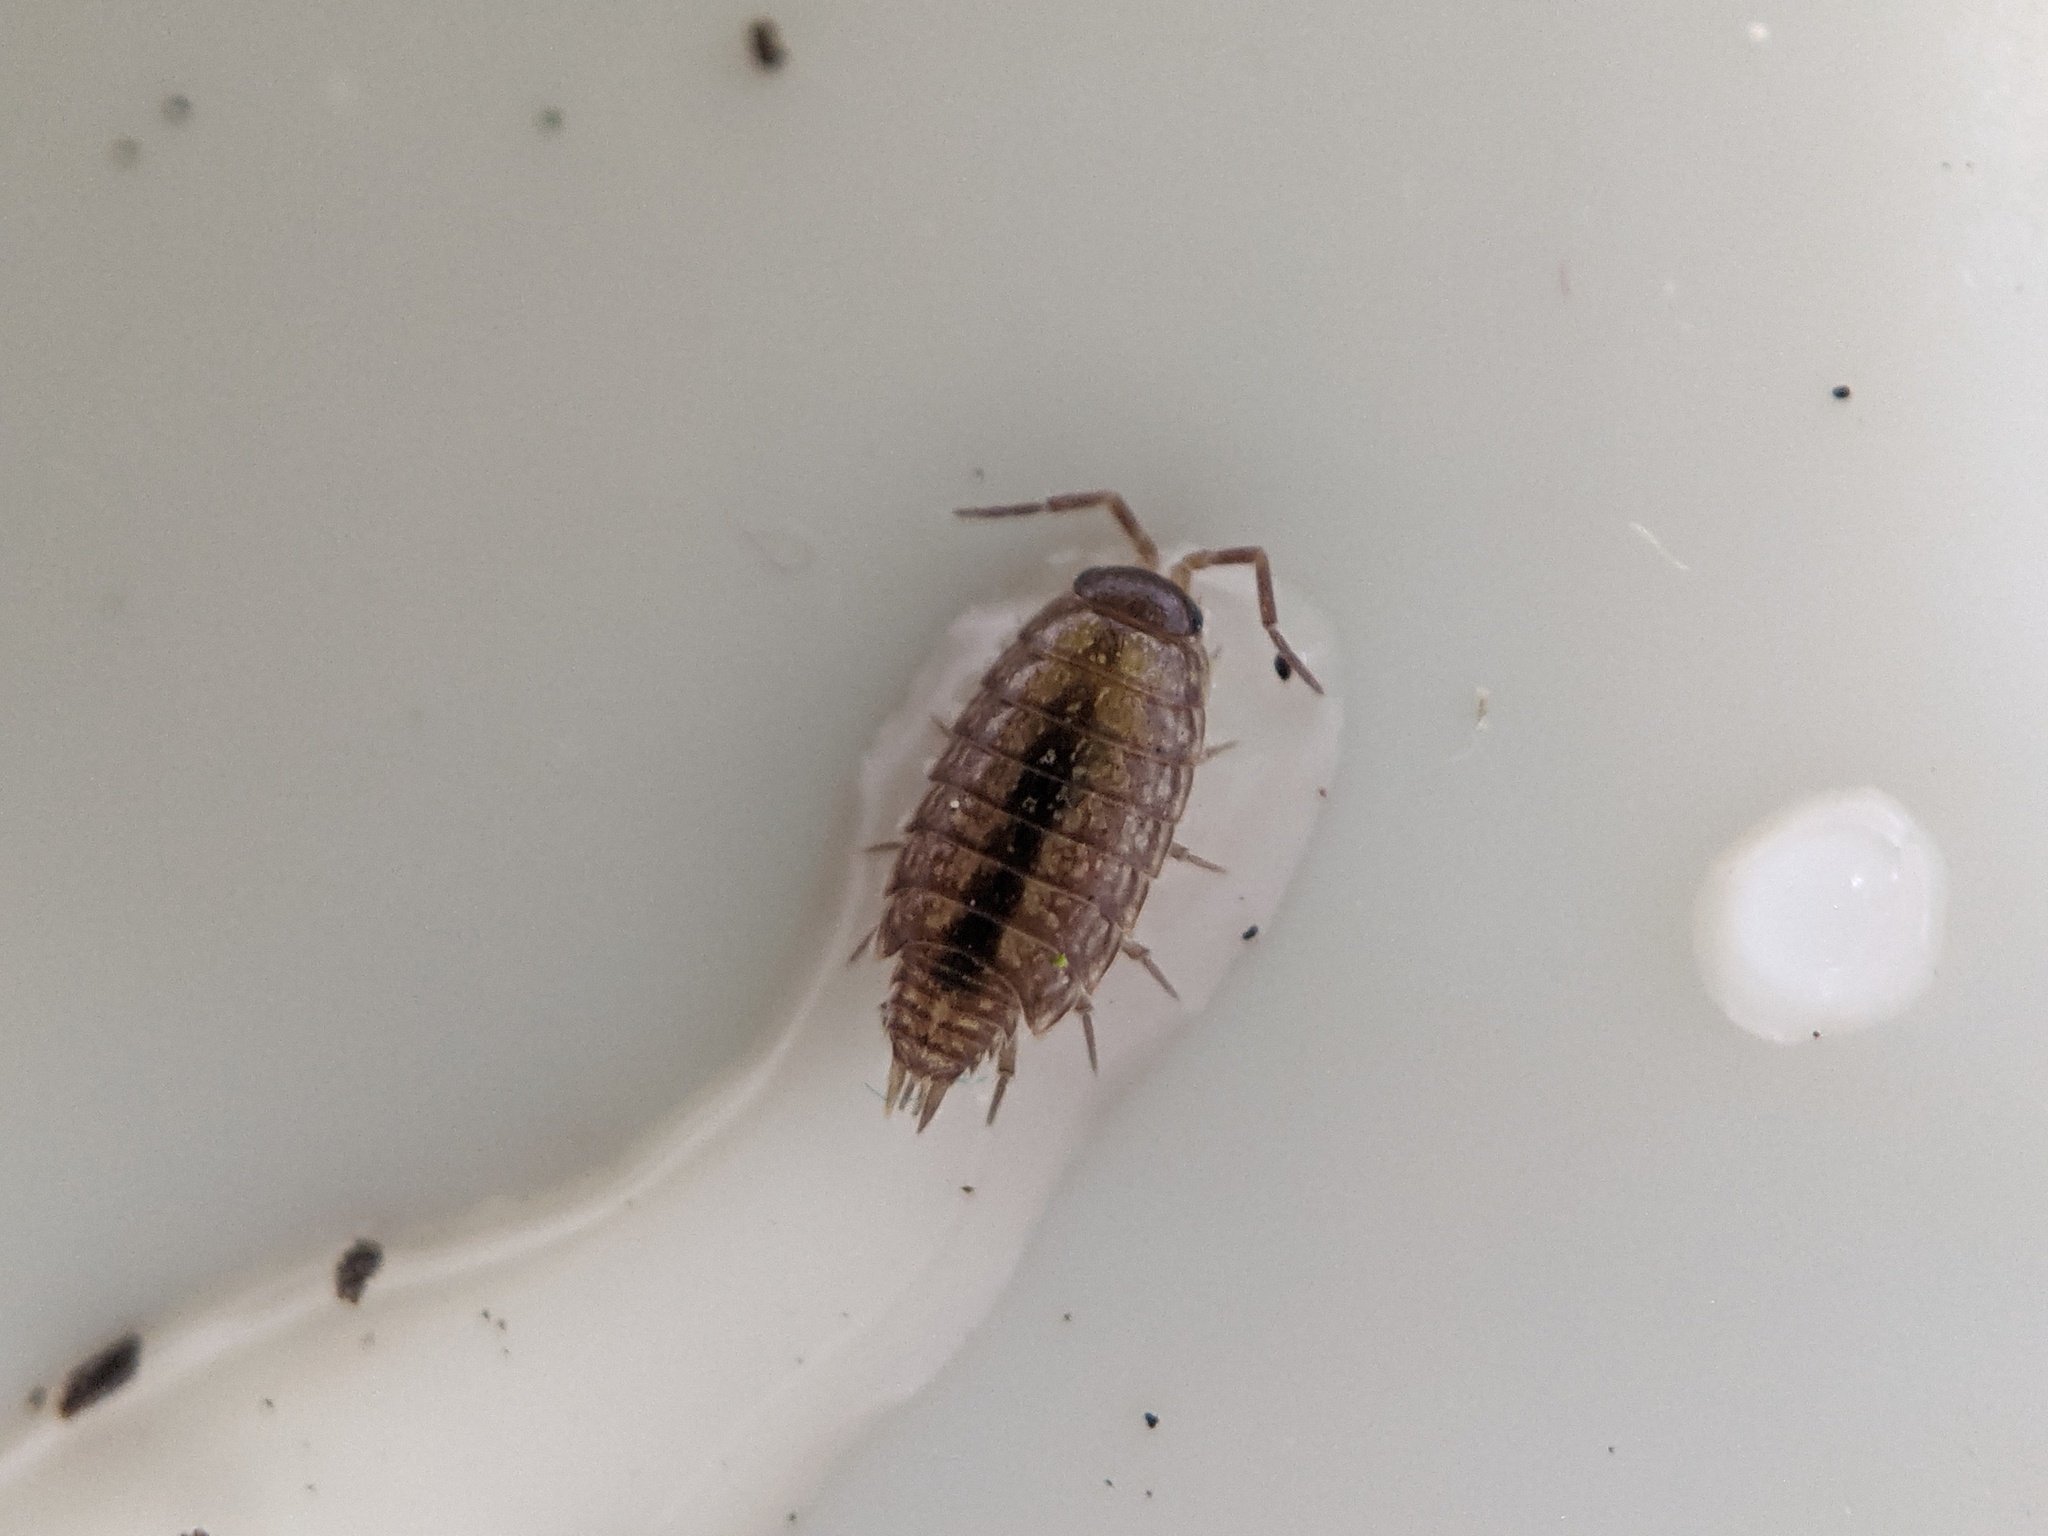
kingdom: Animalia
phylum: Arthropoda
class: Malacostraca
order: Isopoda
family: Philosciidae
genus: Philoscia
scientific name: Philoscia muscorum
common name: Common striped woodlouse
